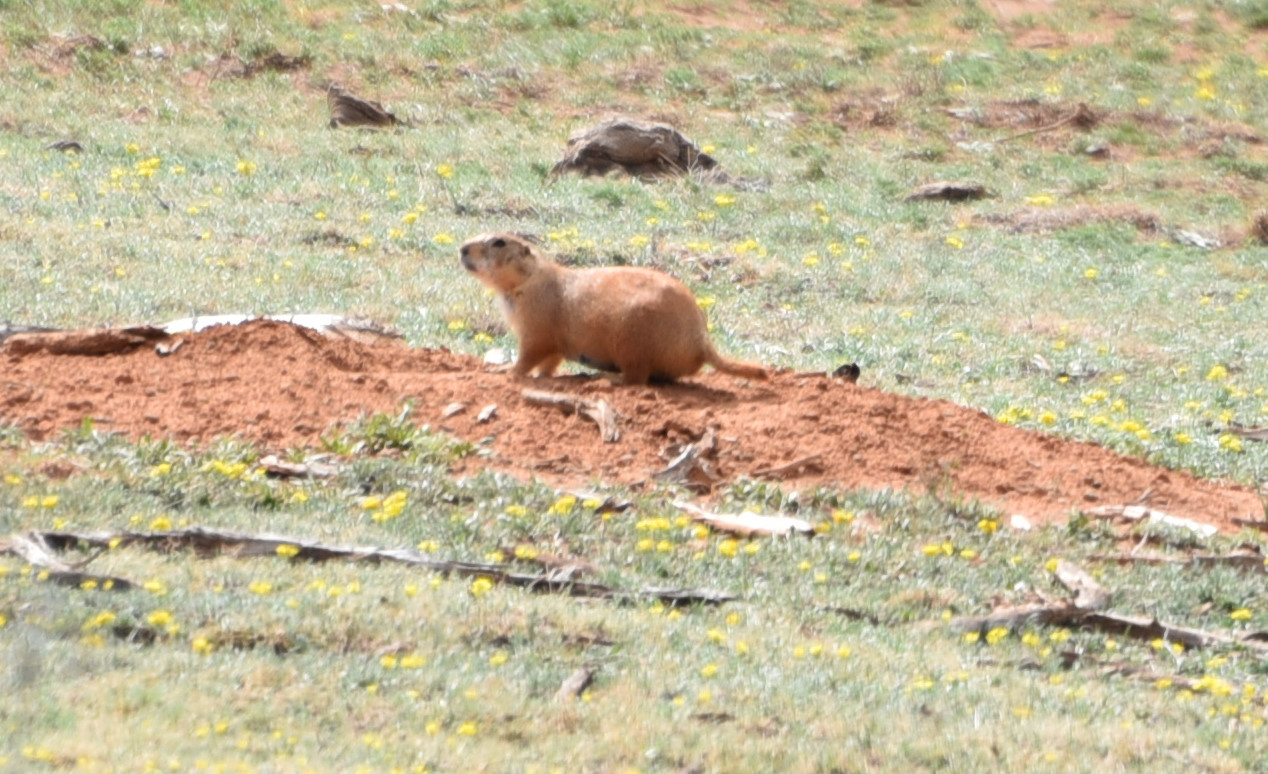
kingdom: Animalia
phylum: Chordata
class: Mammalia
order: Rodentia
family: Sciuridae
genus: Cynomys
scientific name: Cynomys ludovicianus
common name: Black-tailed prairie dog
